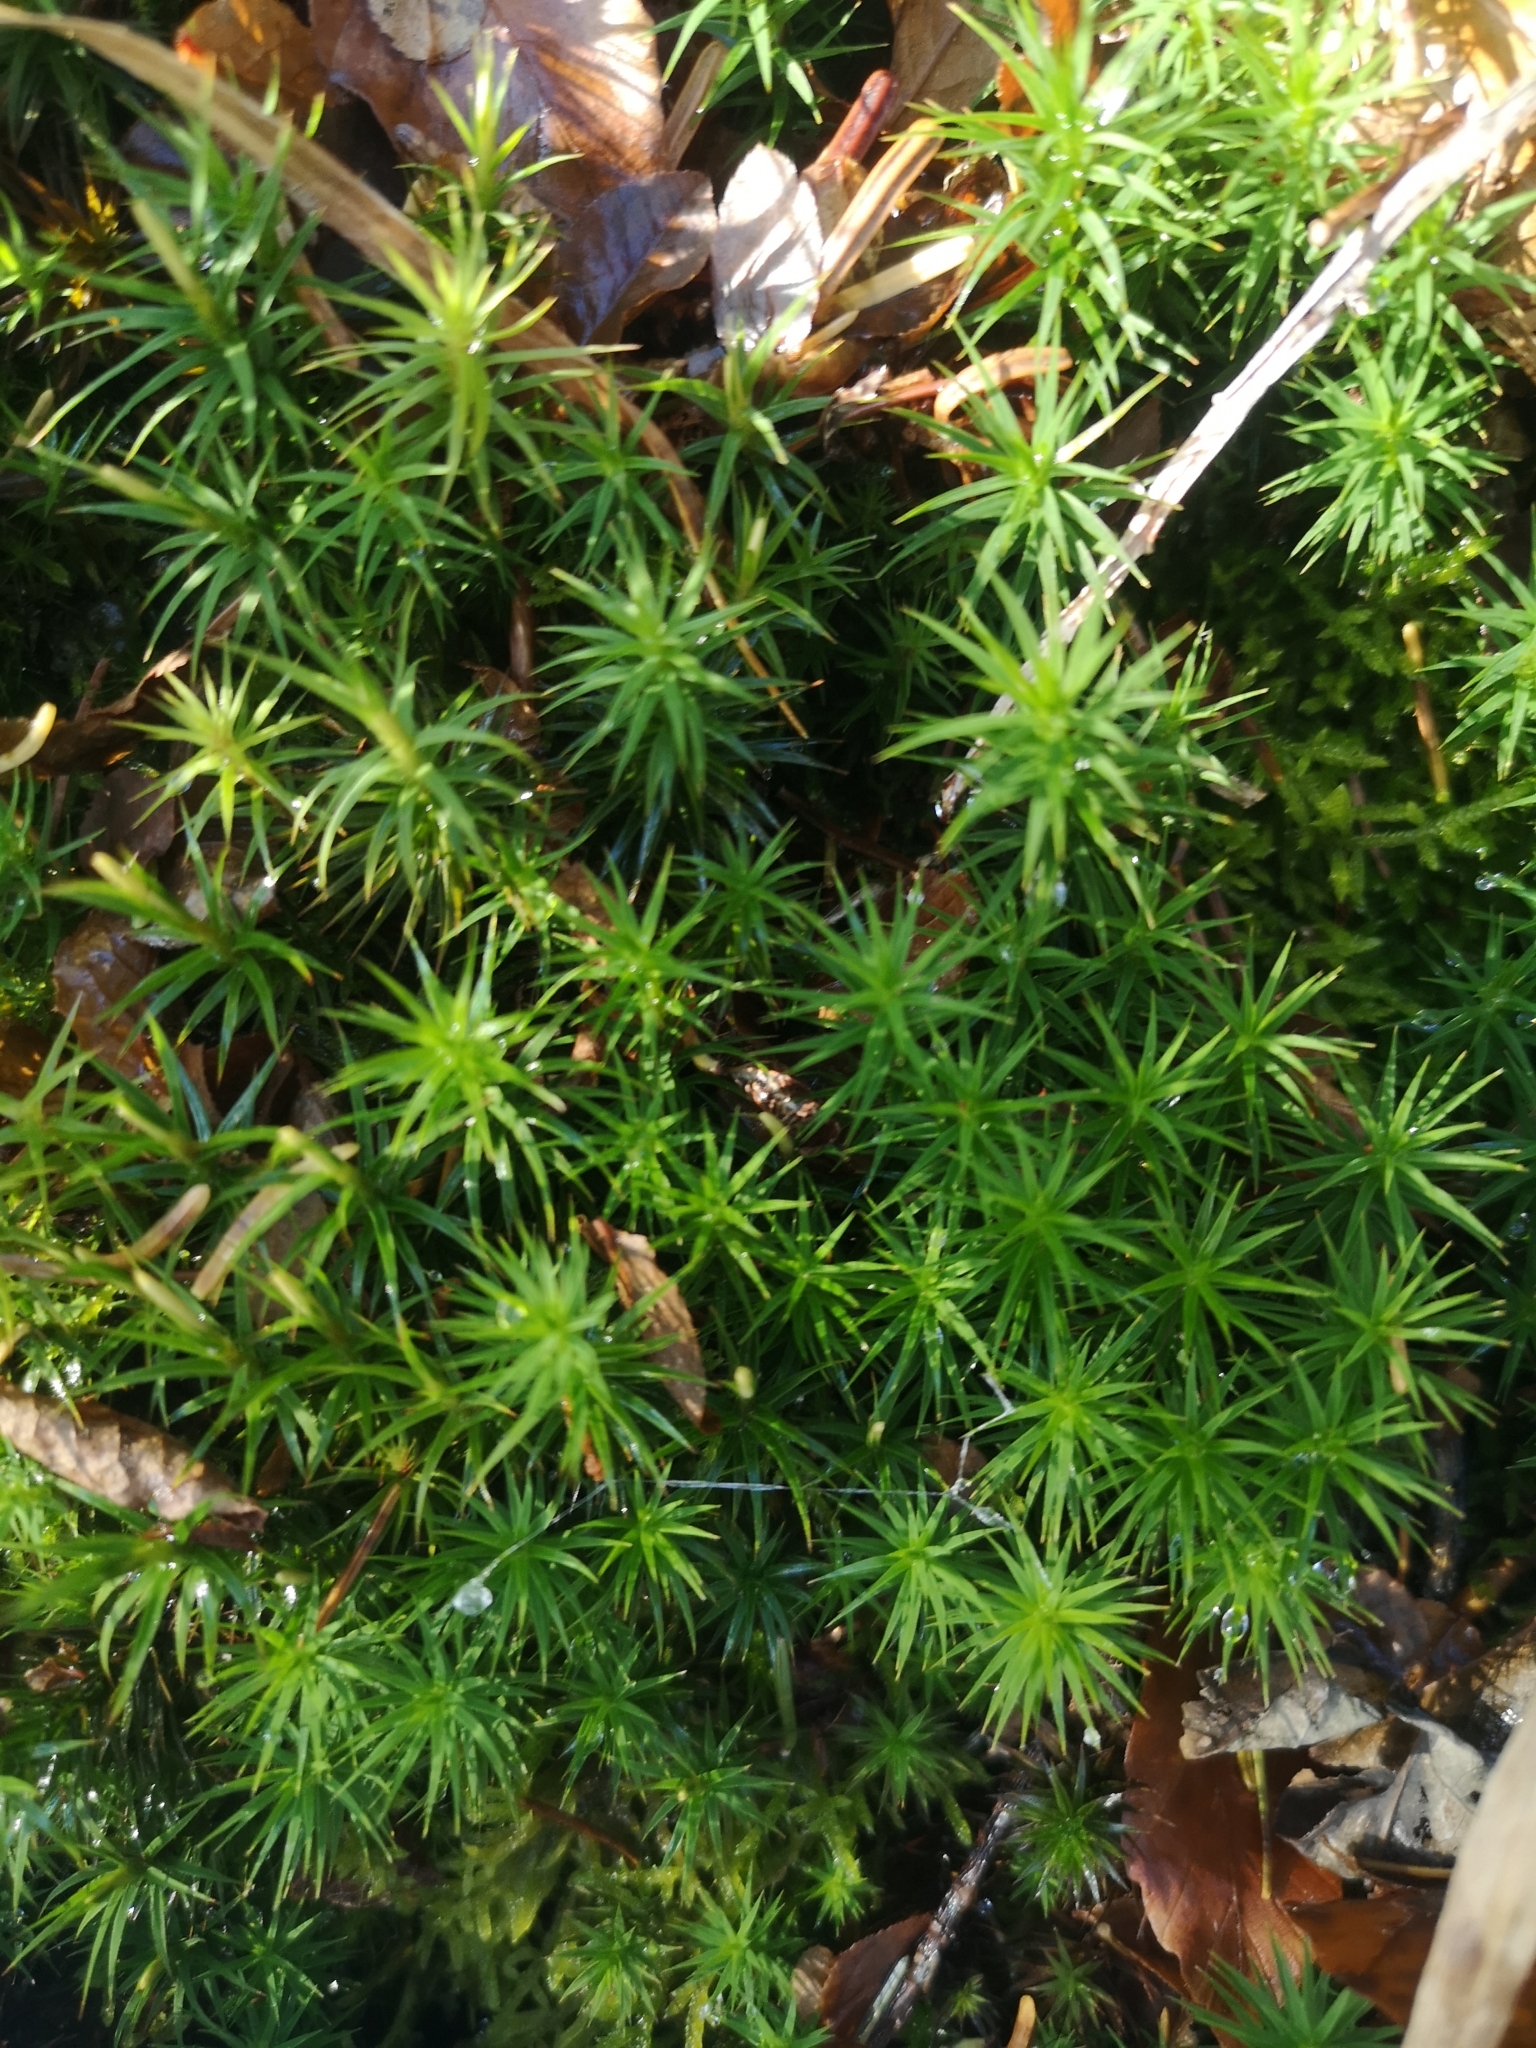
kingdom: Plantae
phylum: Bryophyta
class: Polytrichopsida
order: Polytrichales
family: Polytrichaceae
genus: Polytrichum
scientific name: Polytrichum formosum
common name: Bank haircap moss
